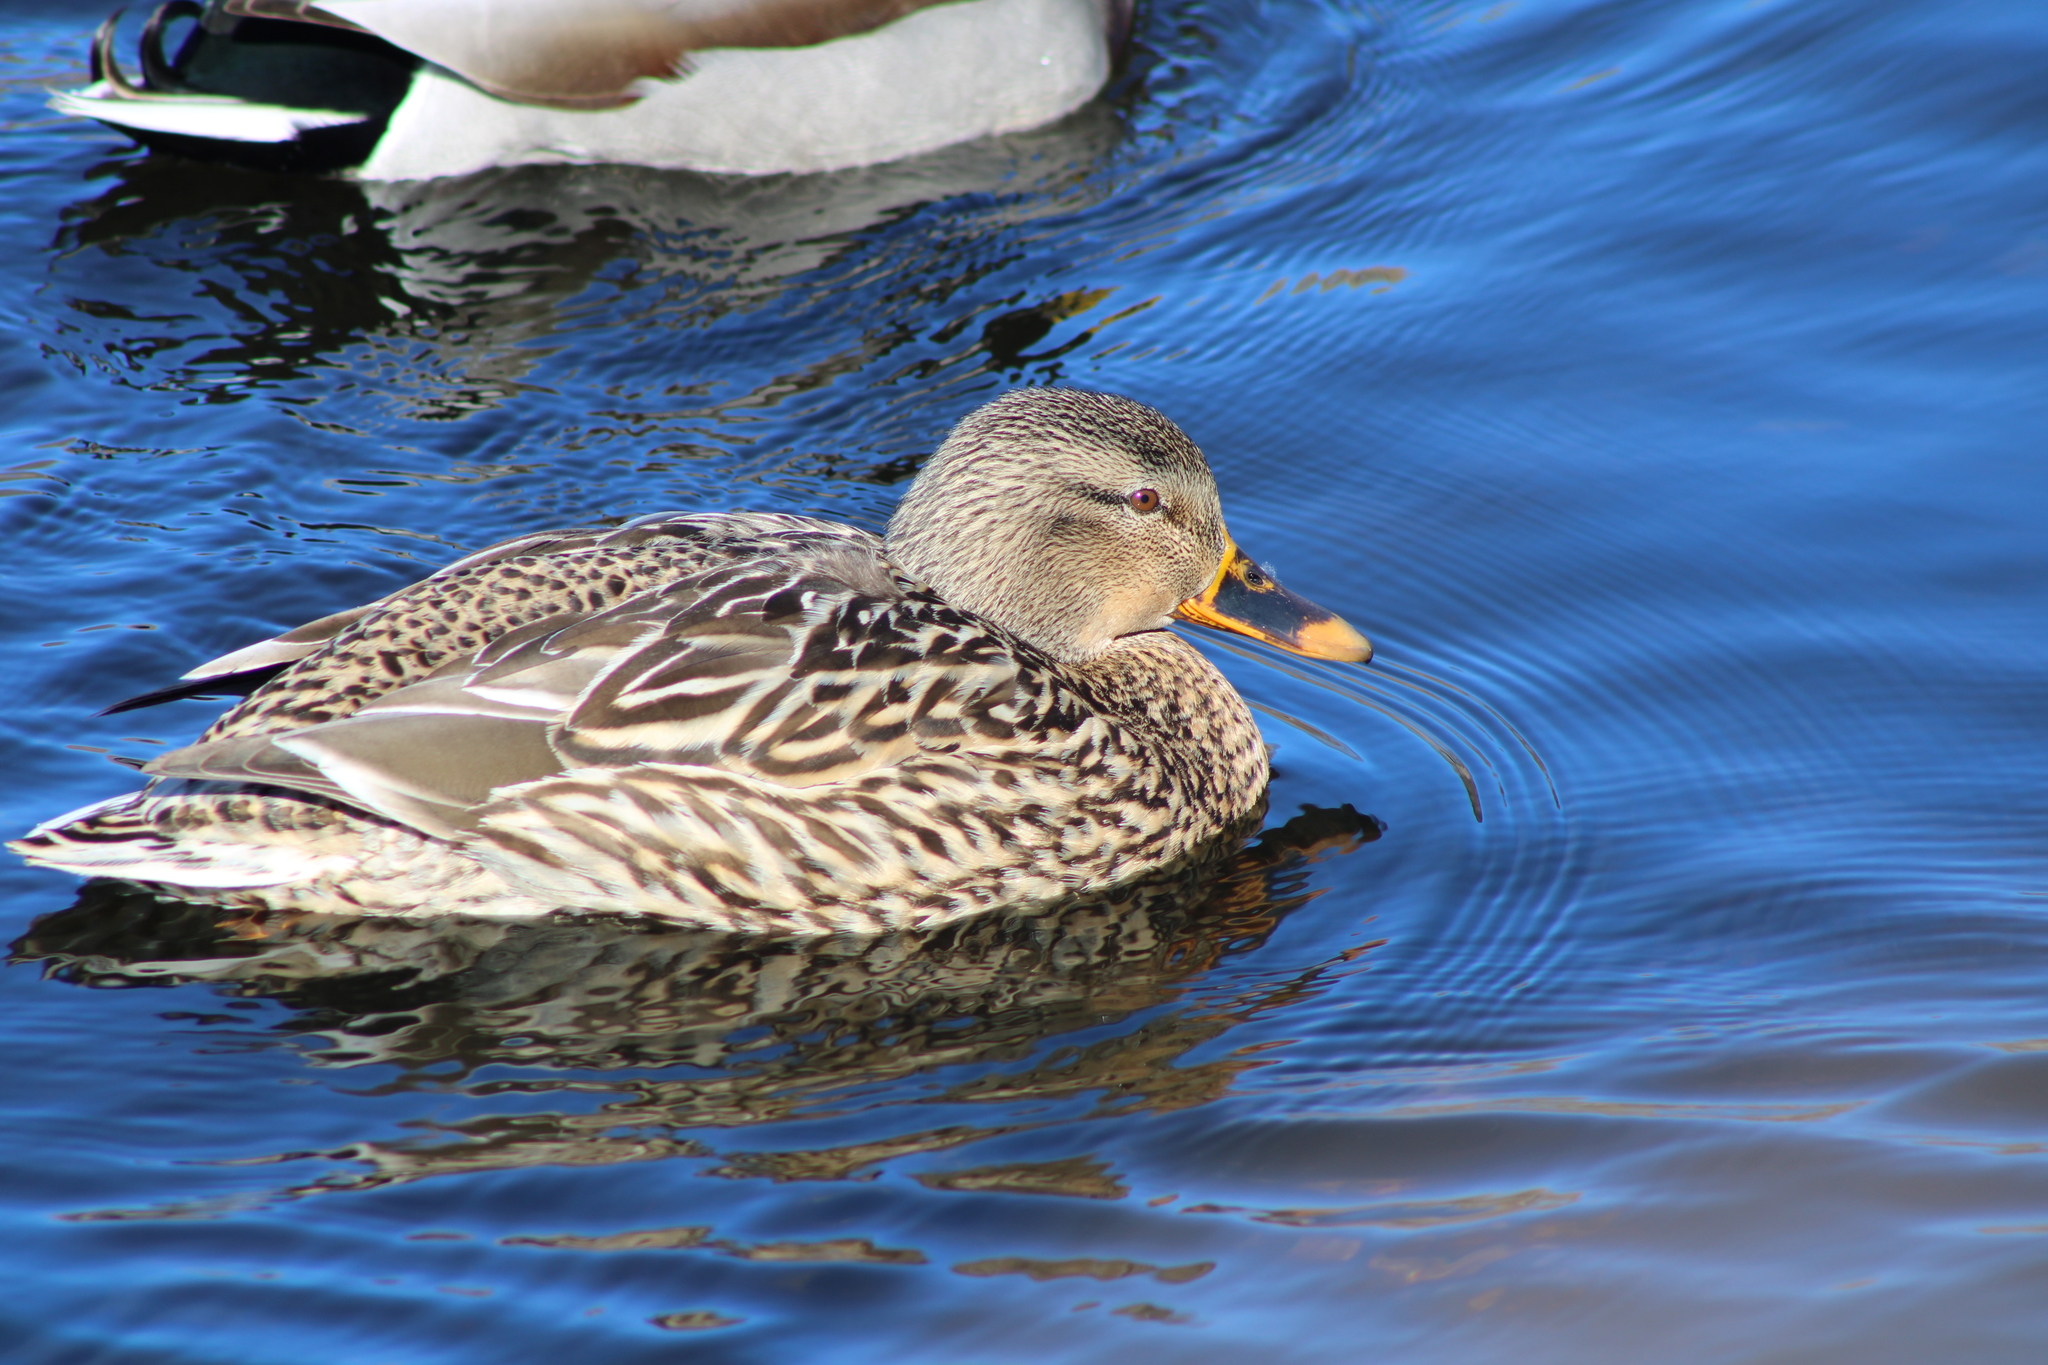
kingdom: Animalia
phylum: Chordata
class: Aves
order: Anseriformes
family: Anatidae
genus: Anas
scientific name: Anas platyrhynchos
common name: Mallard
